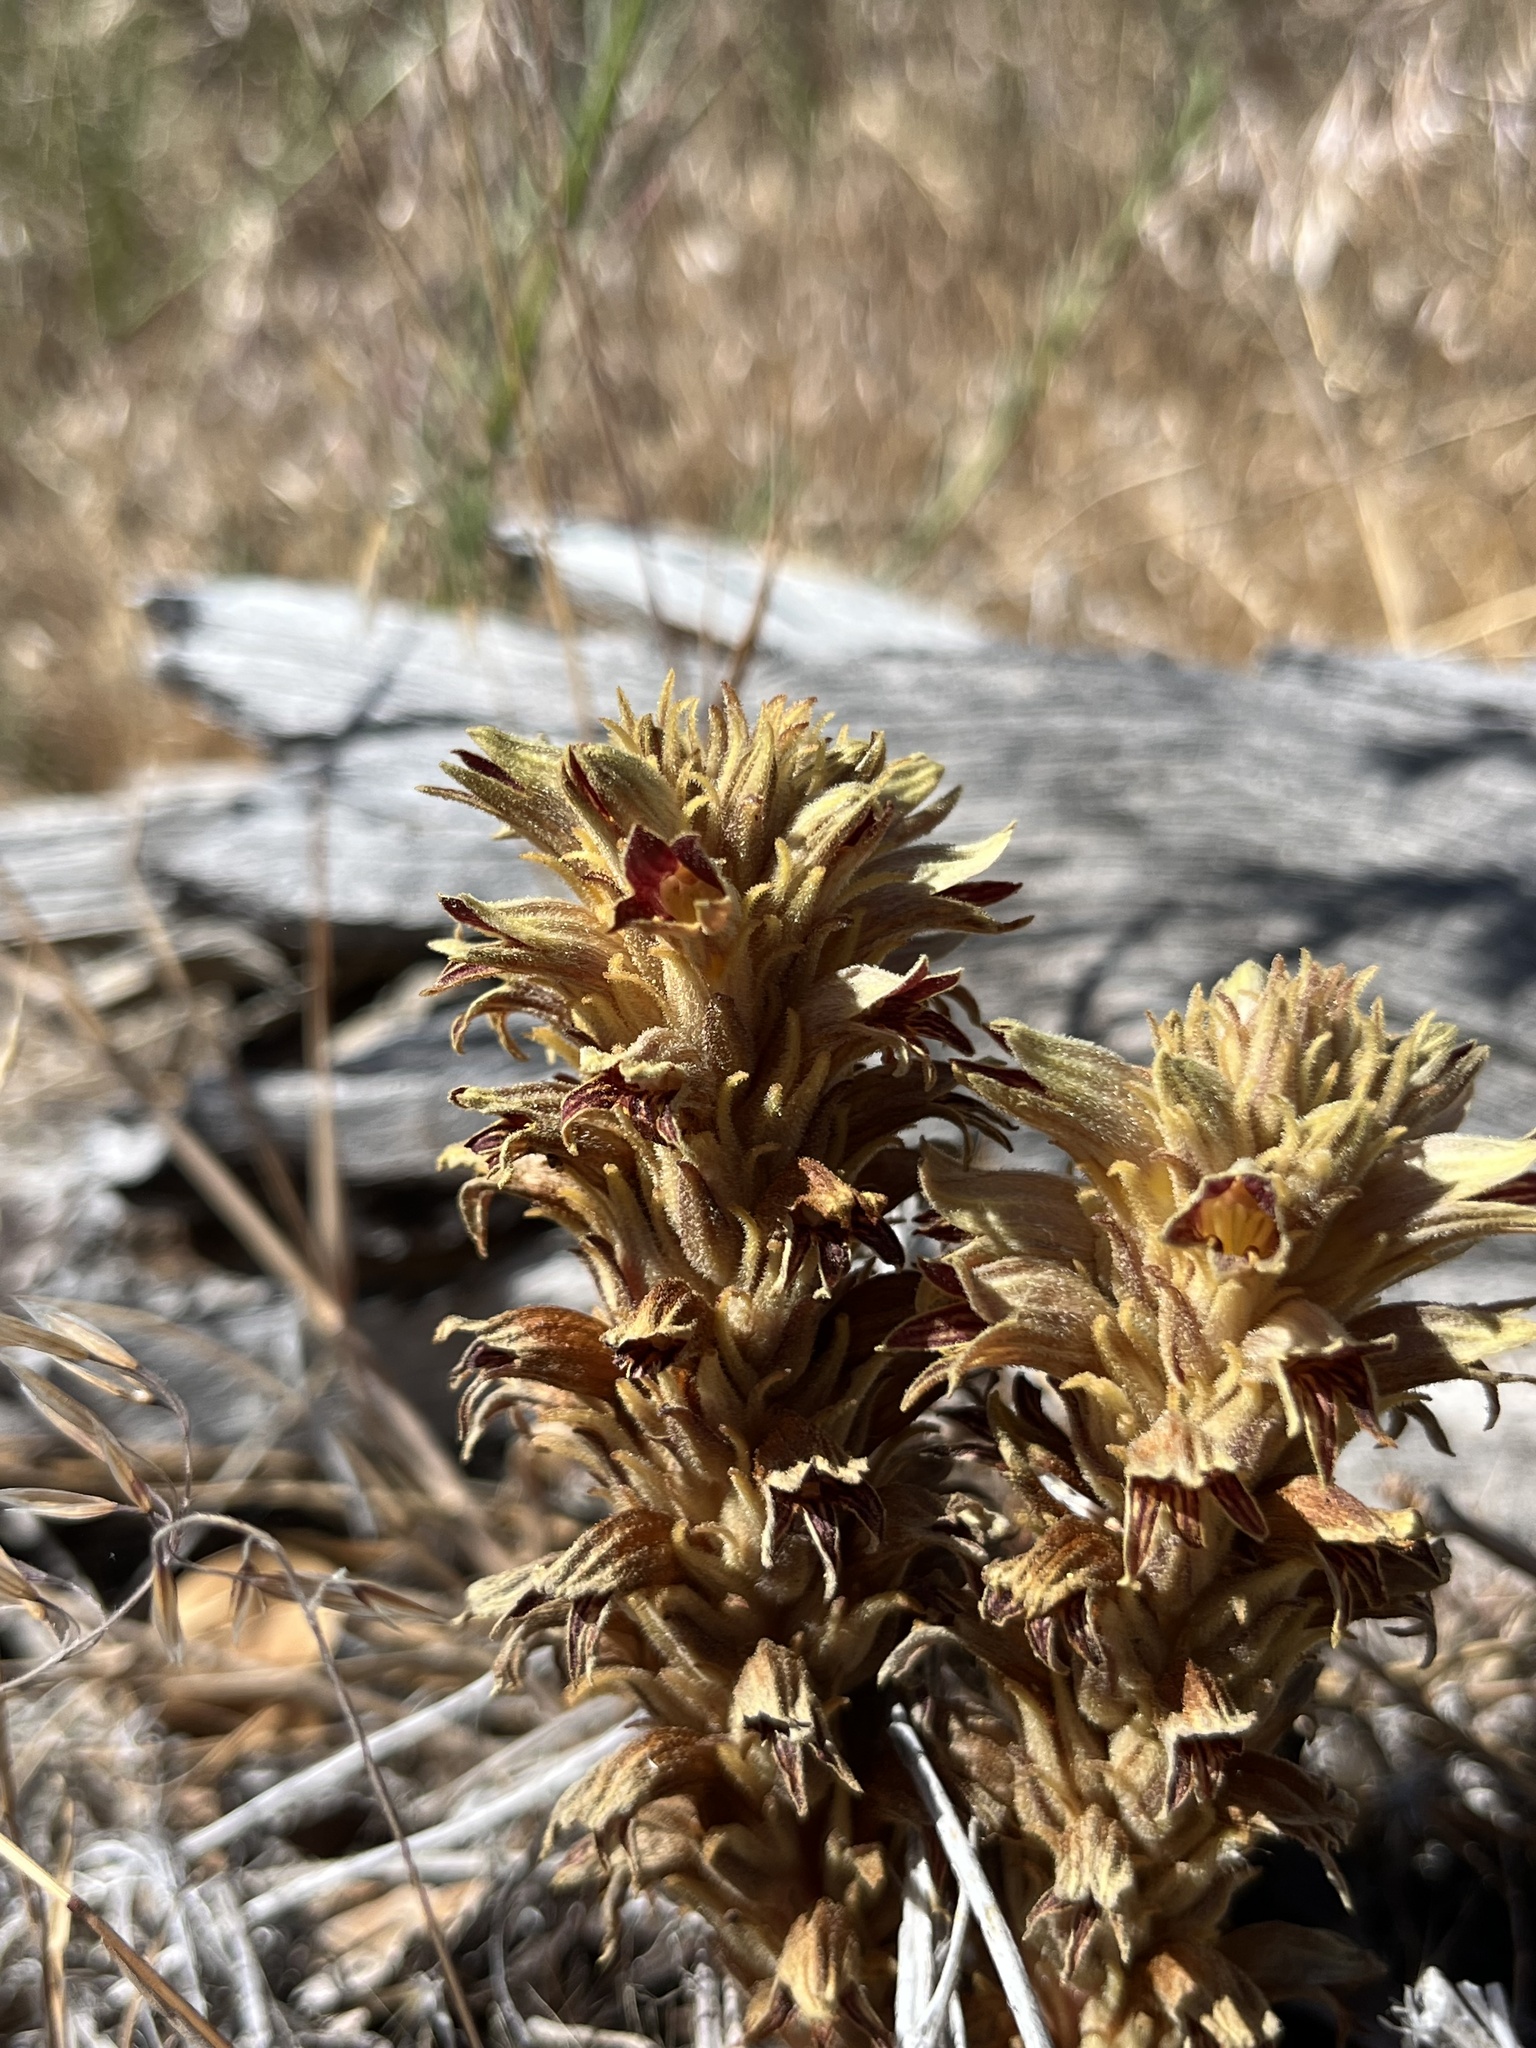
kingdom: Plantae
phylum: Tracheophyta
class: Magnoliopsida
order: Lamiales
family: Orobanchaceae
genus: Aphyllon
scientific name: Aphyllon parishii
